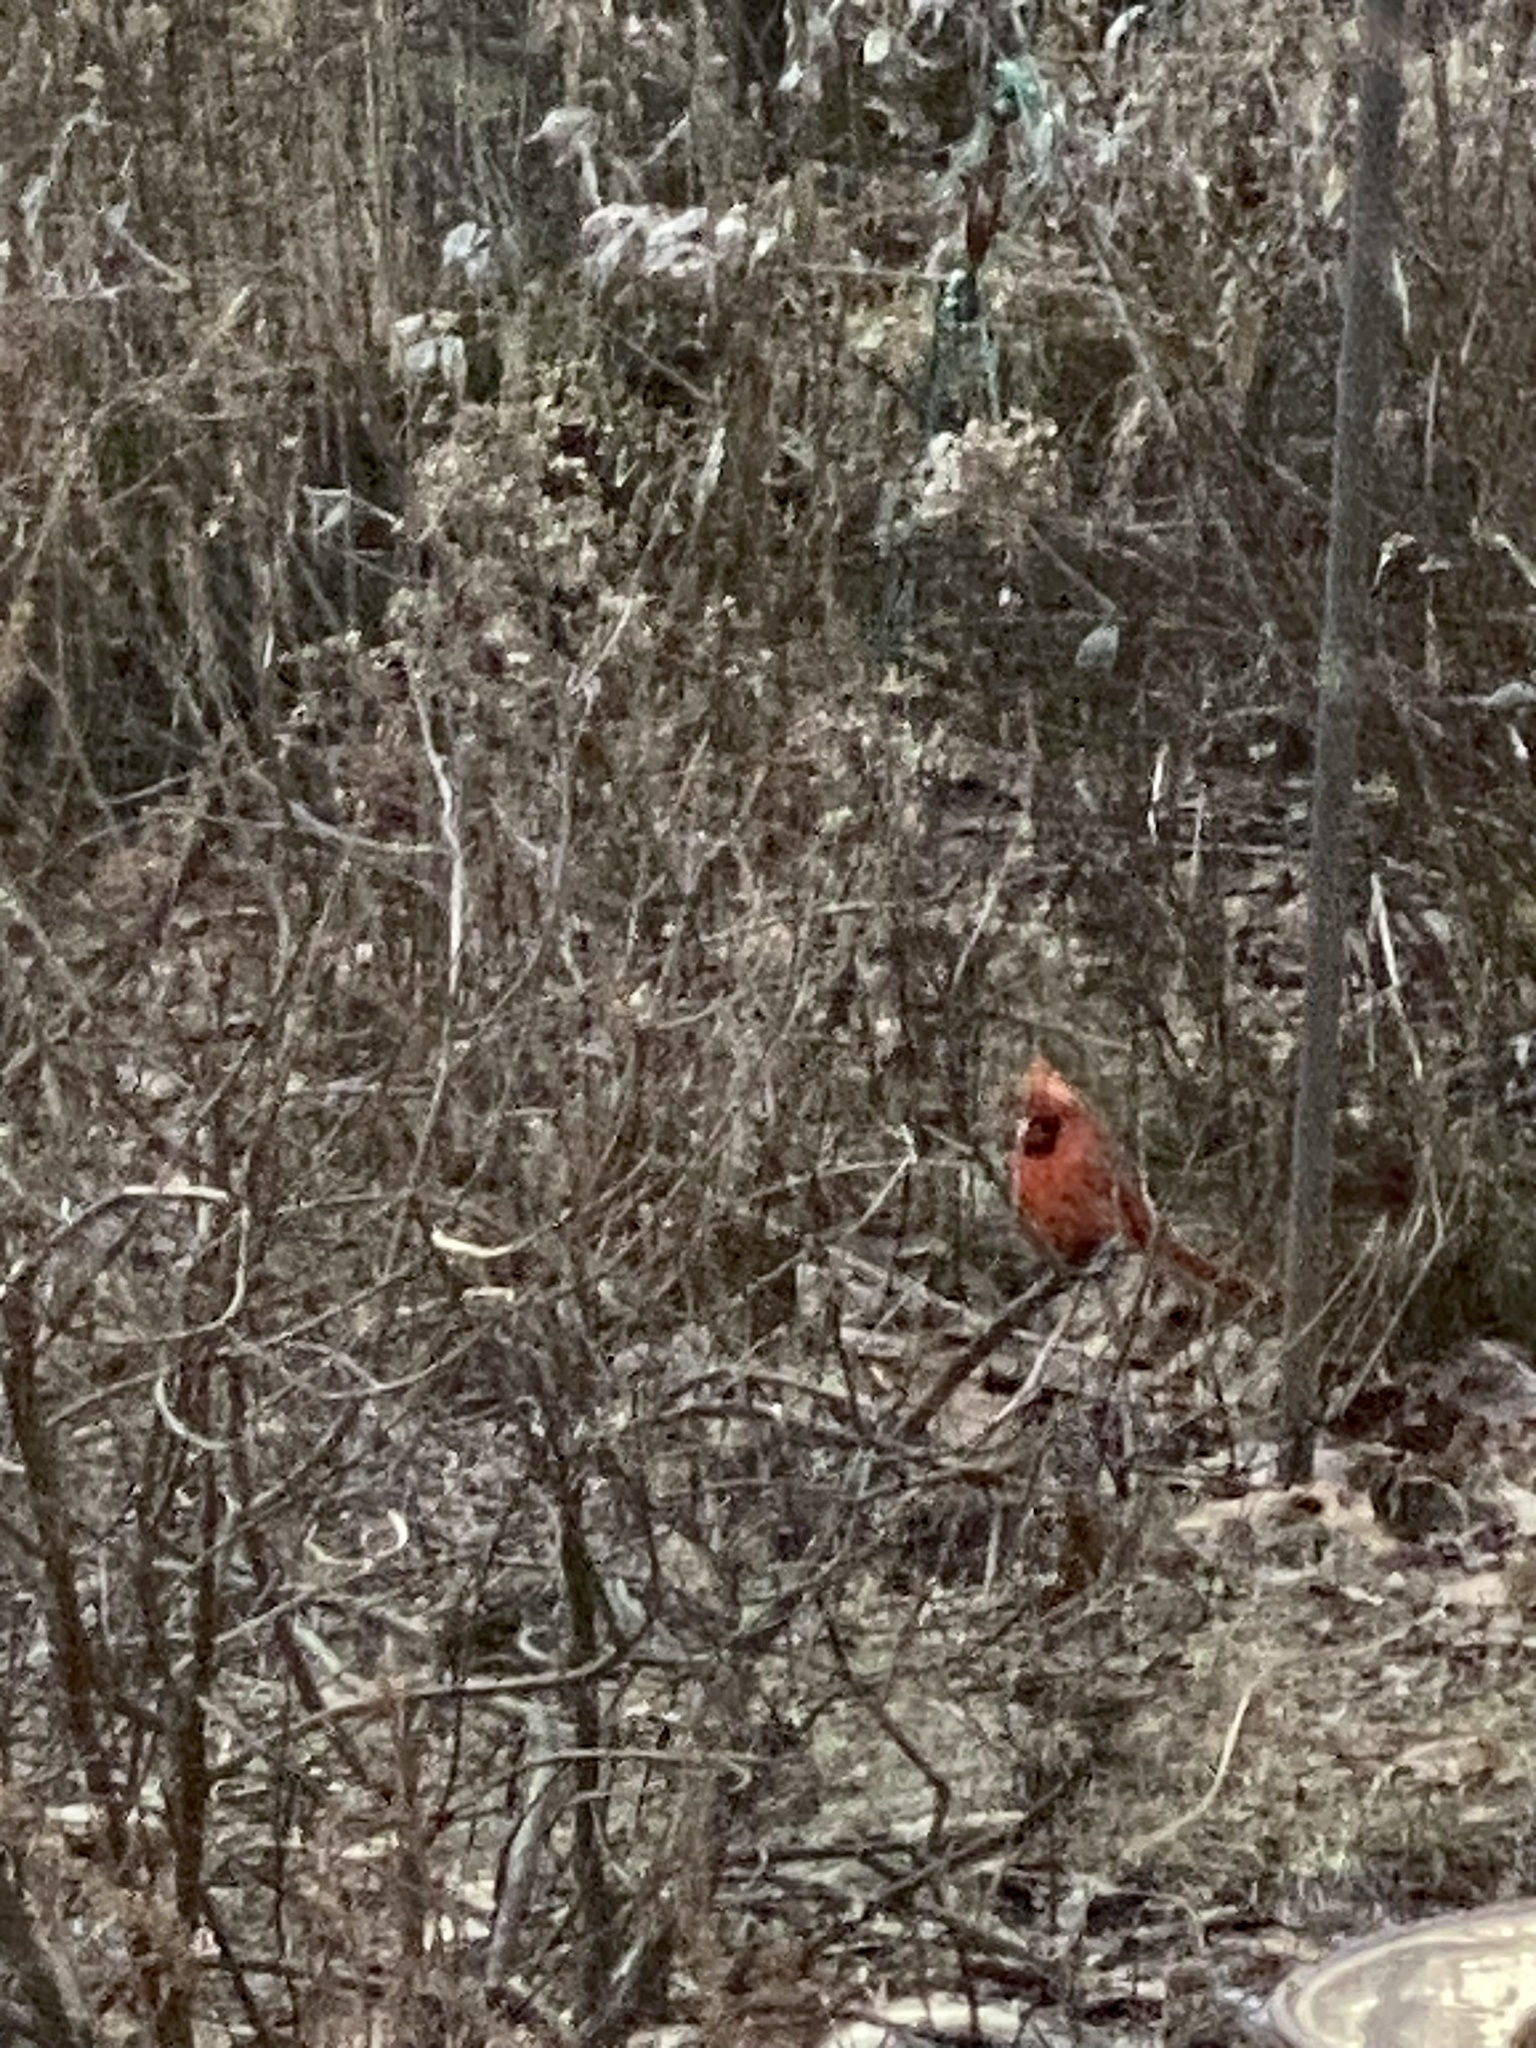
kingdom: Animalia
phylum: Chordata
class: Aves
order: Passeriformes
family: Cardinalidae
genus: Cardinalis
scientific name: Cardinalis cardinalis
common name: Northern cardinal
